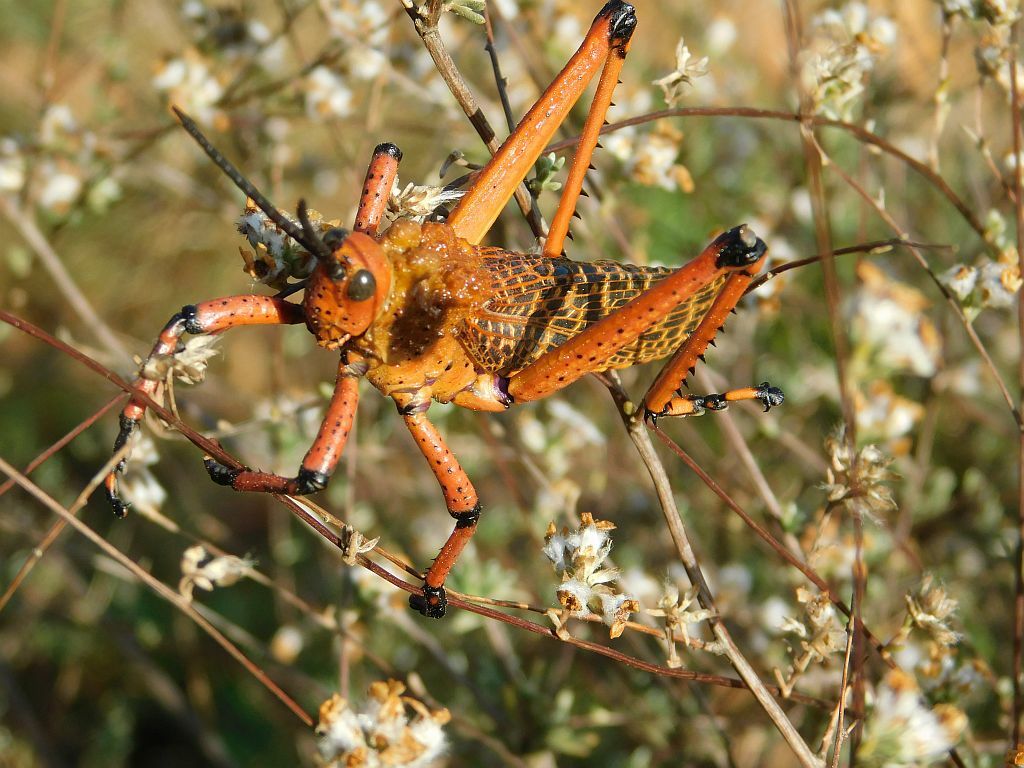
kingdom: Animalia
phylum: Arthropoda
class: Insecta
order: Orthoptera
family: Pyrgomorphidae
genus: Phymateus
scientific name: Phymateus leprosus
